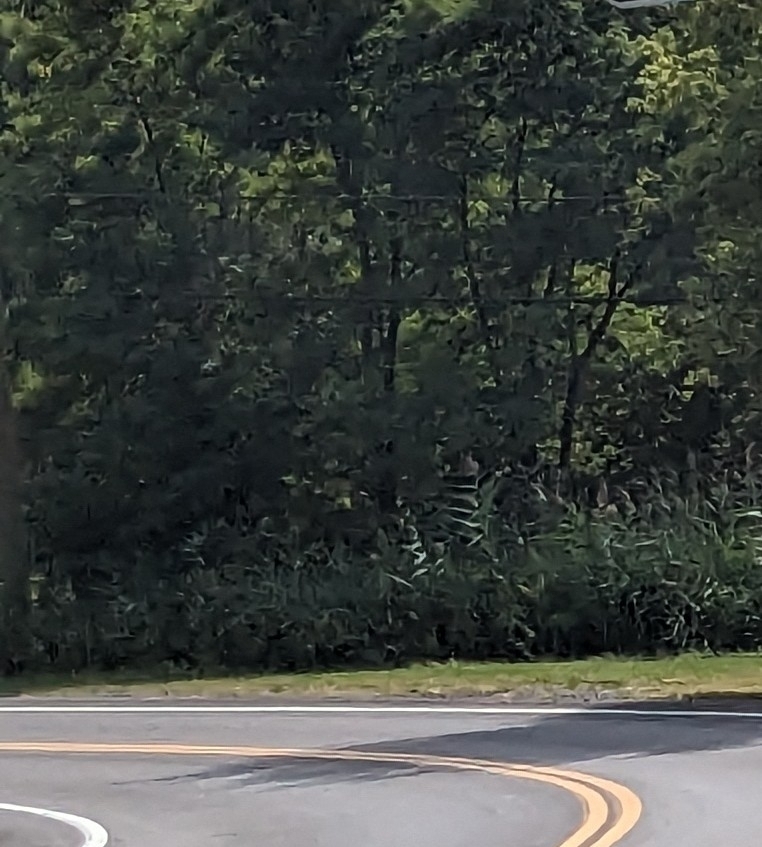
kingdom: Plantae
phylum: Tracheophyta
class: Liliopsida
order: Poales
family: Poaceae
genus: Phragmites
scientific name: Phragmites australis
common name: Common reed
